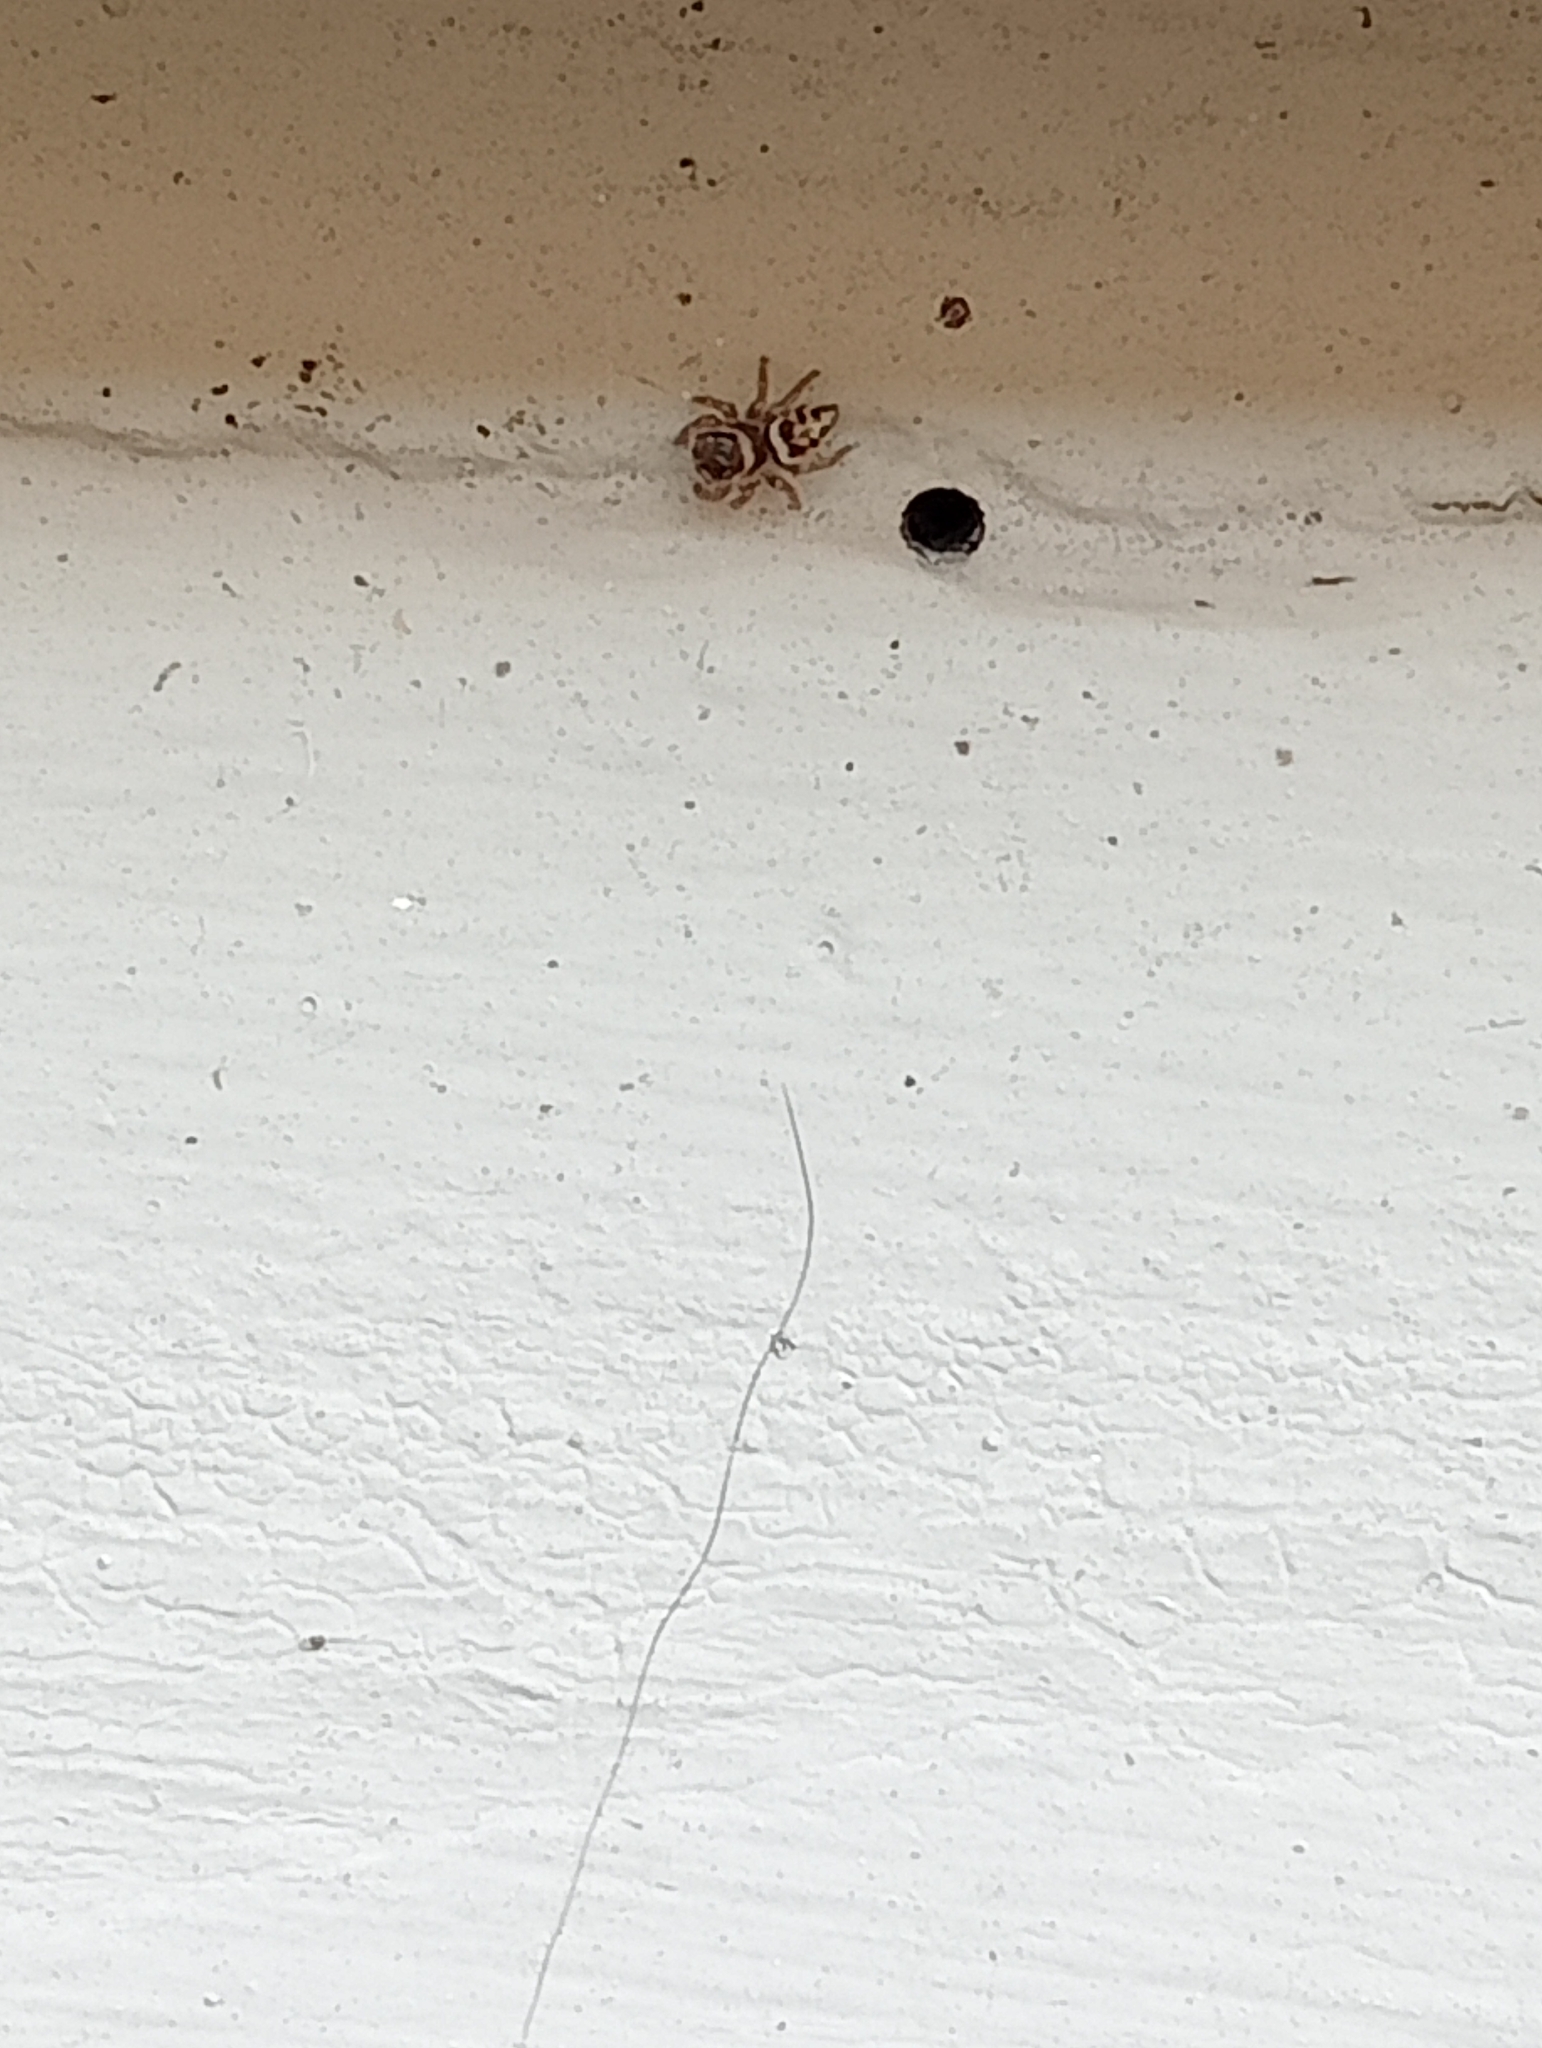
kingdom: Animalia
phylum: Arthropoda
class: Arachnida
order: Araneae
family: Salticidae
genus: Maratus
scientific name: Maratus griseus
